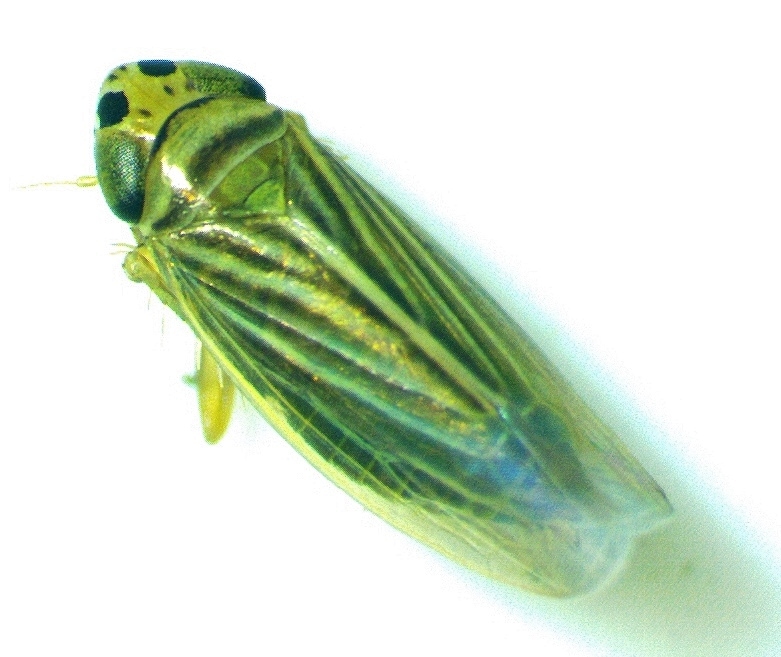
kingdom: Animalia
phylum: Arthropoda
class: Insecta
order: Hemiptera
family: Cicadellidae
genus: Graminella
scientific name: Graminella villicus
